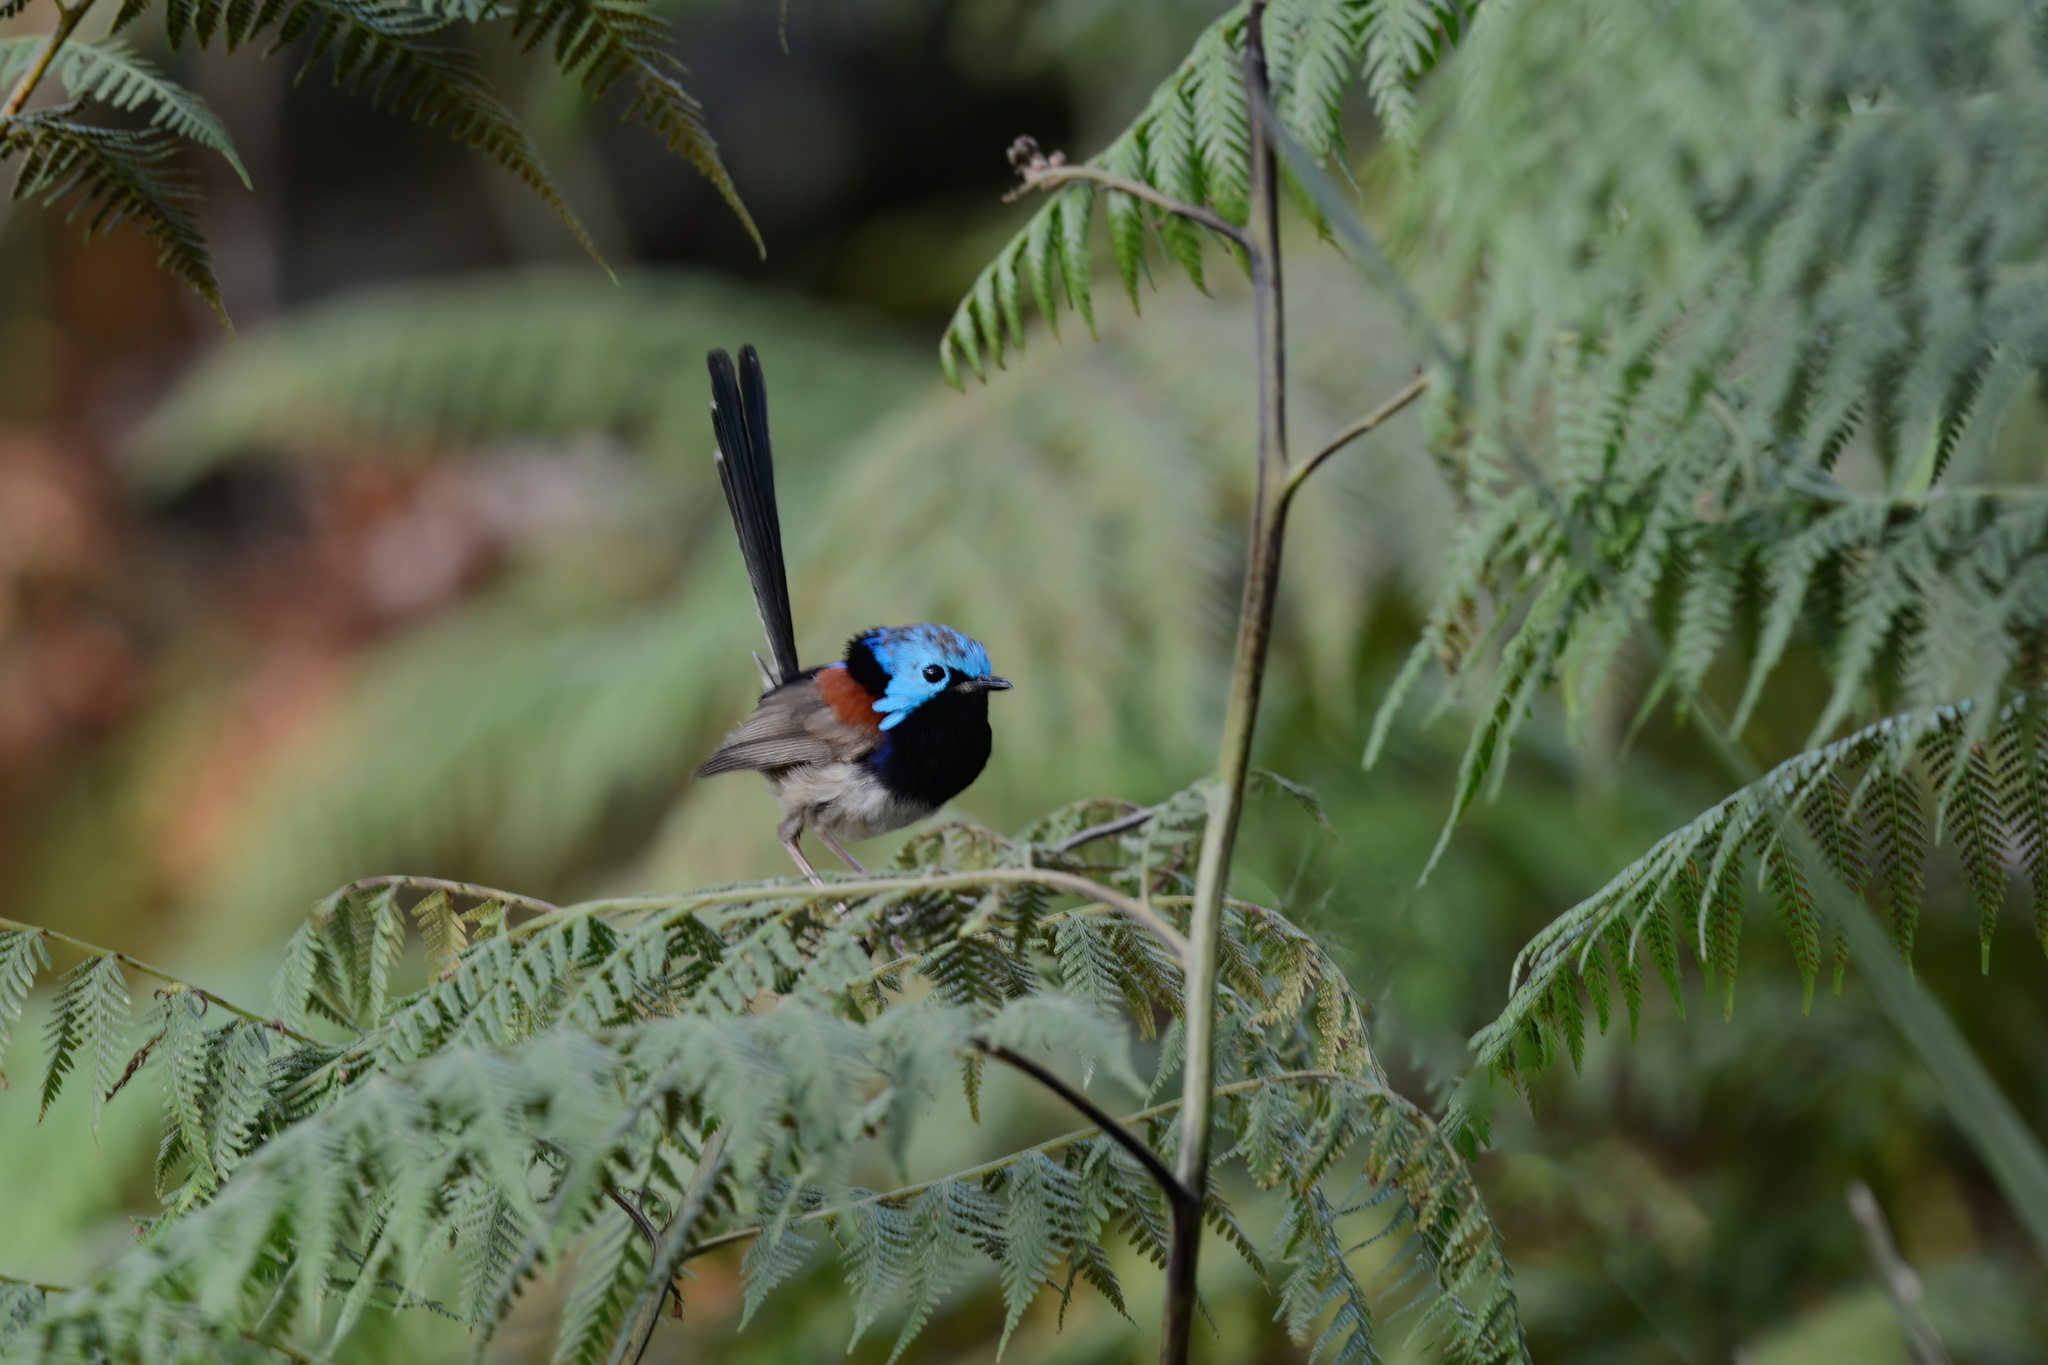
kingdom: Animalia
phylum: Chordata
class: Aves
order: Passeriformes
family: Maluridae
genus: Malurus
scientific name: Malurus lamberti
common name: Variegated fairywren
